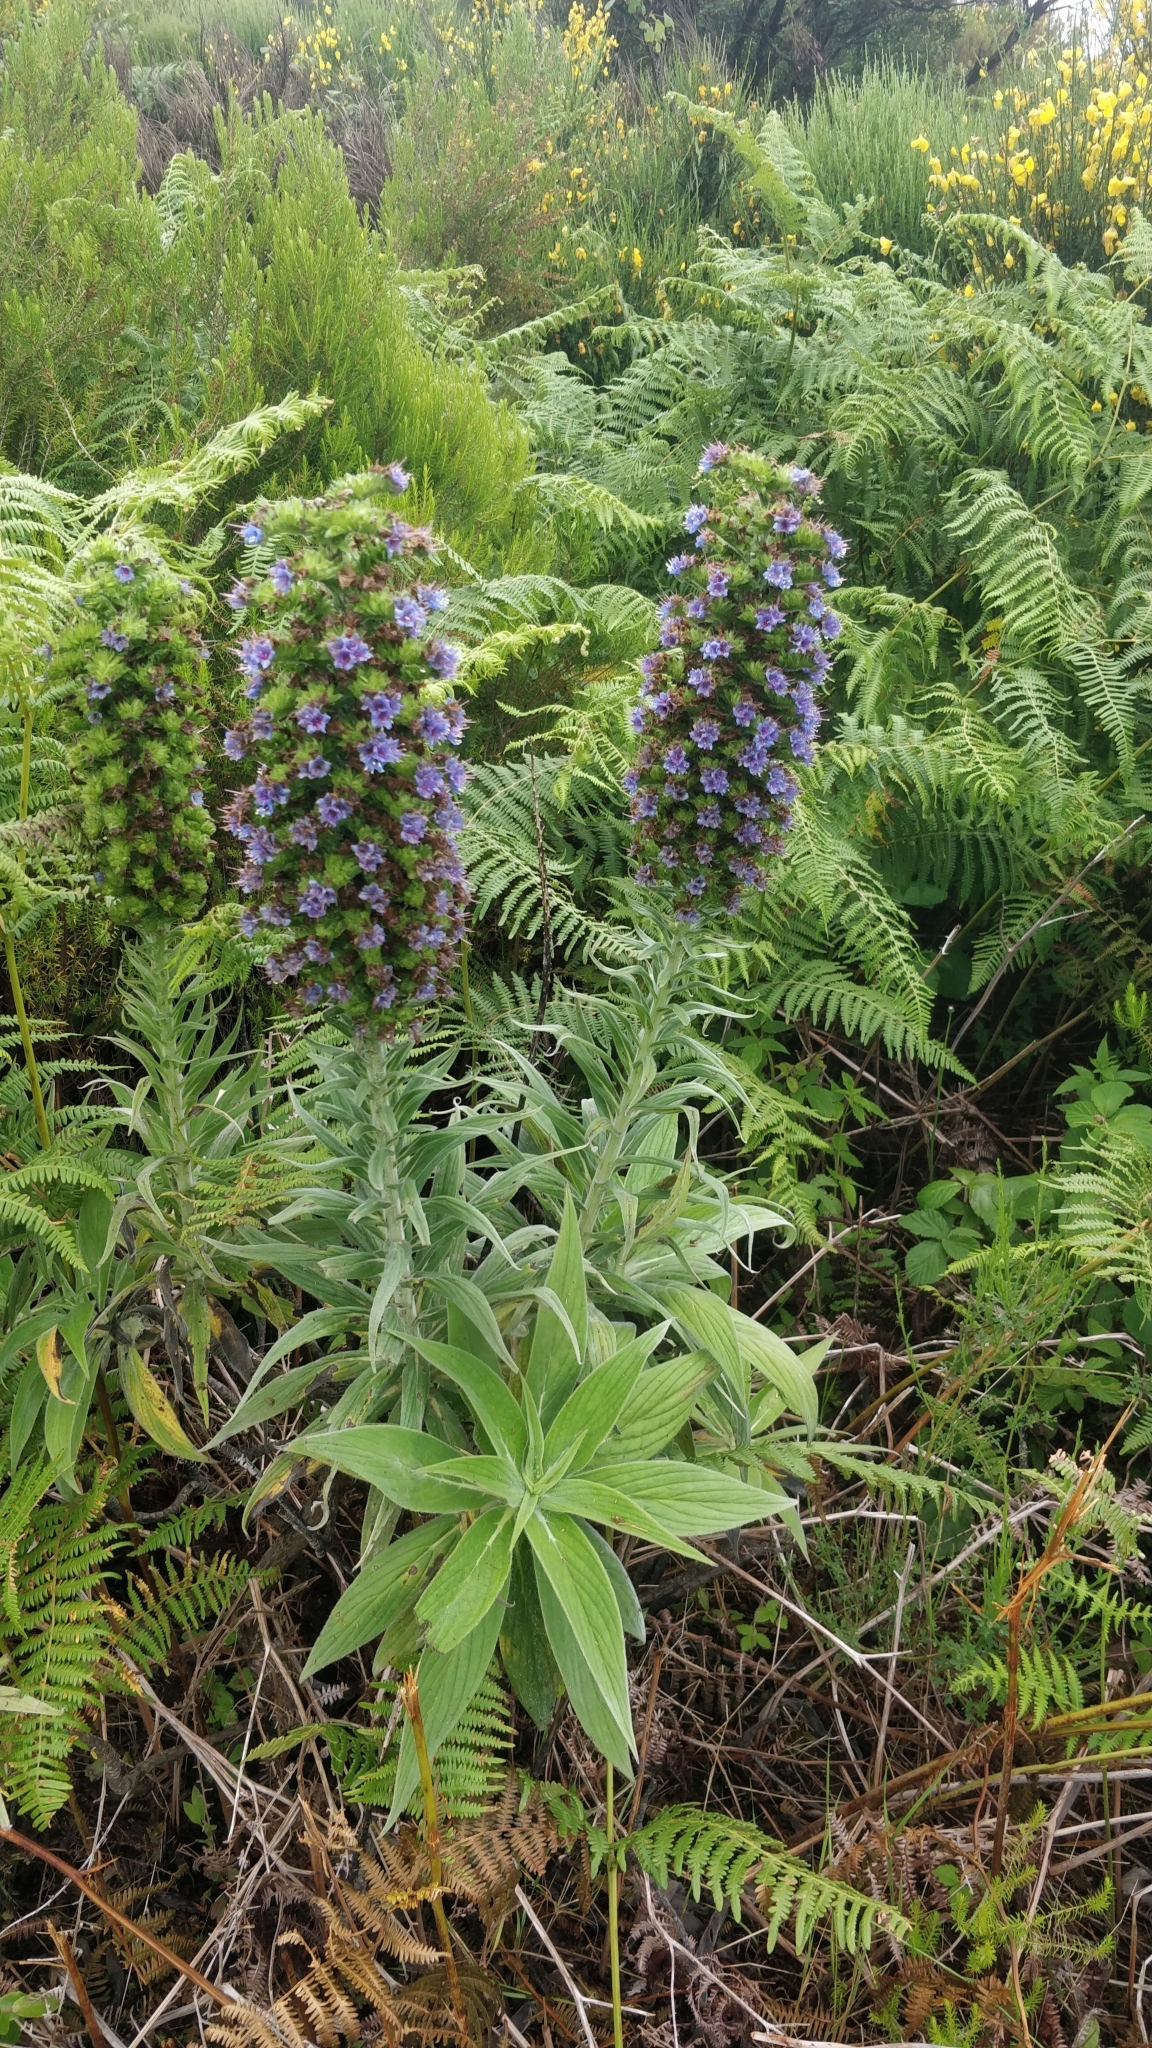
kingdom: Plantae
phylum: Tracheophyta
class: Magnoliopsida
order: Boraginales
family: Boraginaceae
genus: Echium
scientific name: Echium candicans
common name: Pride of madeira
